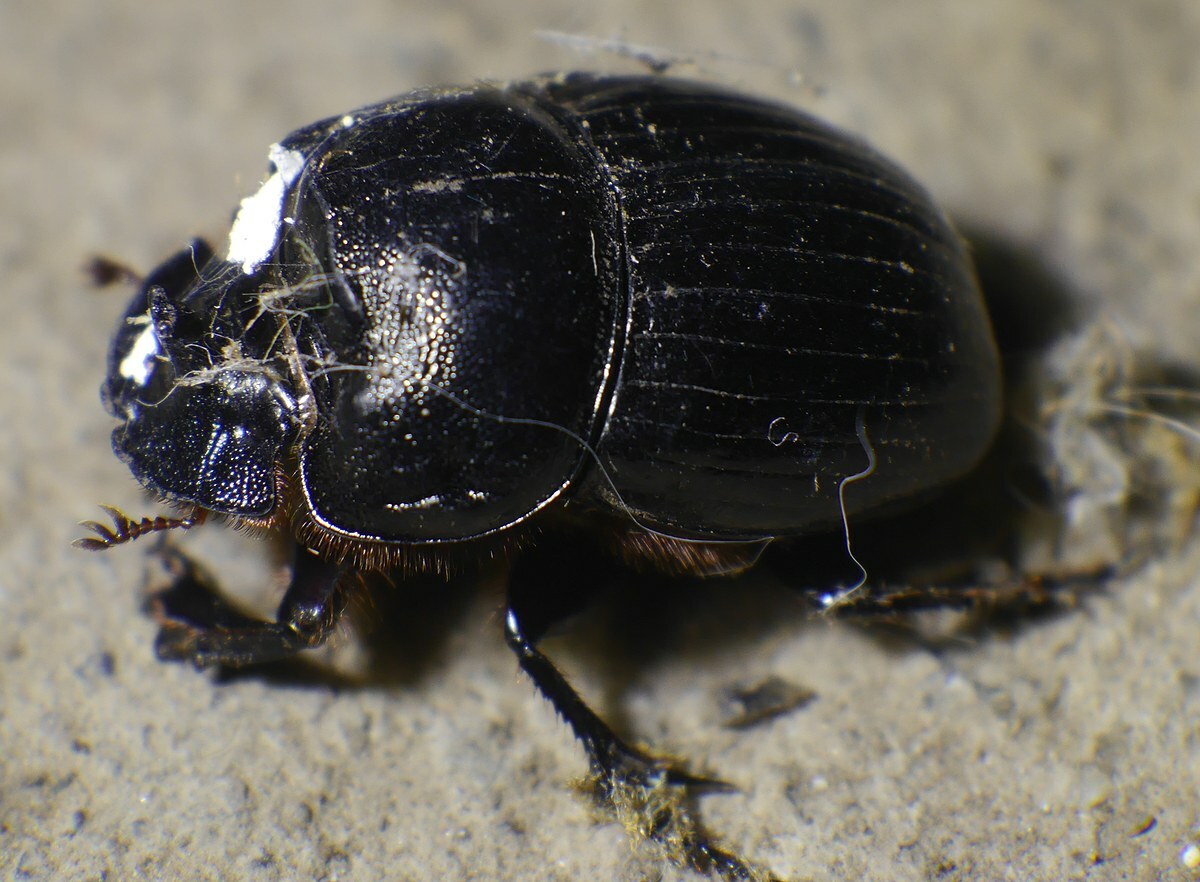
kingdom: Animalia
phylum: Arthropoda
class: Insecta
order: Coleoptera
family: Scarabaeidae
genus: Copris
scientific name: Copris lunaris
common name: Horned dung beetle
